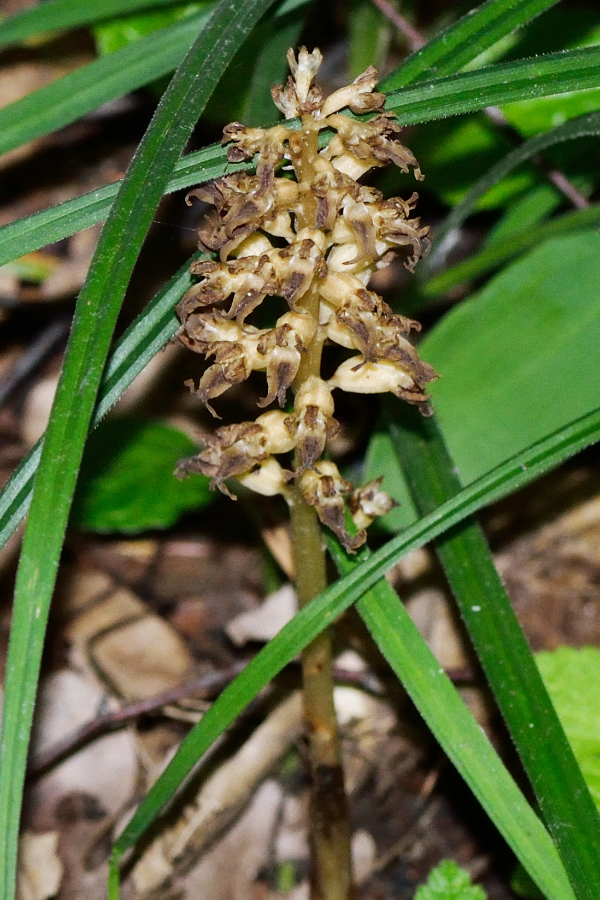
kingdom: Plantae
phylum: Tracheophyta
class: Liliopsida
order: Asparagales
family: Orchidaceae
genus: Neottia
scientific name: Neottia nidus-avis
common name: Bird's-nest orchid
